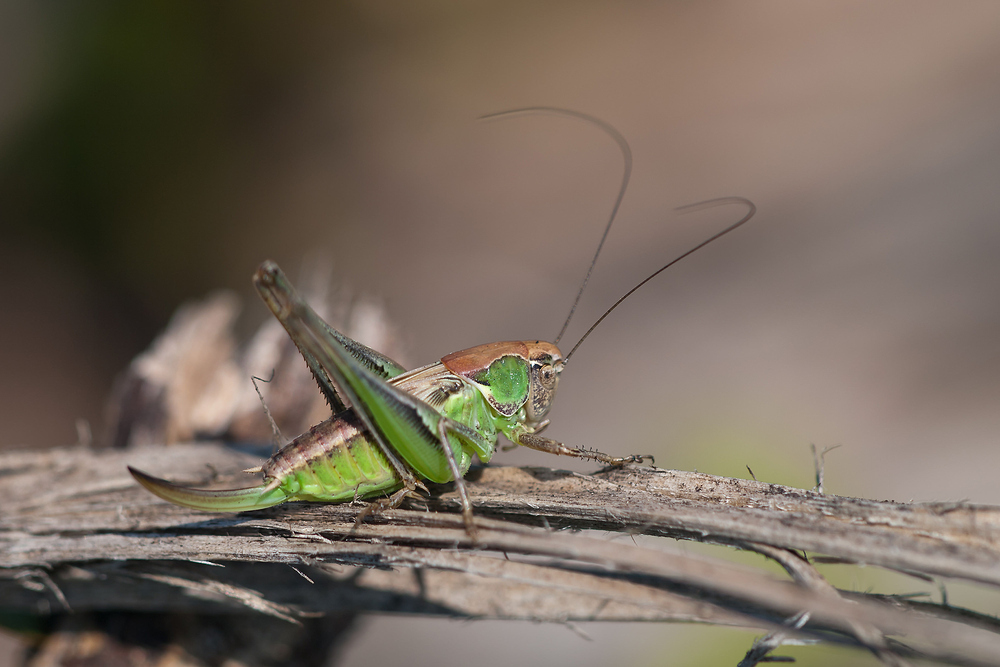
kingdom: Animalia
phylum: Arthropoda
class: Insecta
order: Orthoptera
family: Tettigoniidae
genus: Platycleis
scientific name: Platycleis albopunctata
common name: Grey bush-cricket
